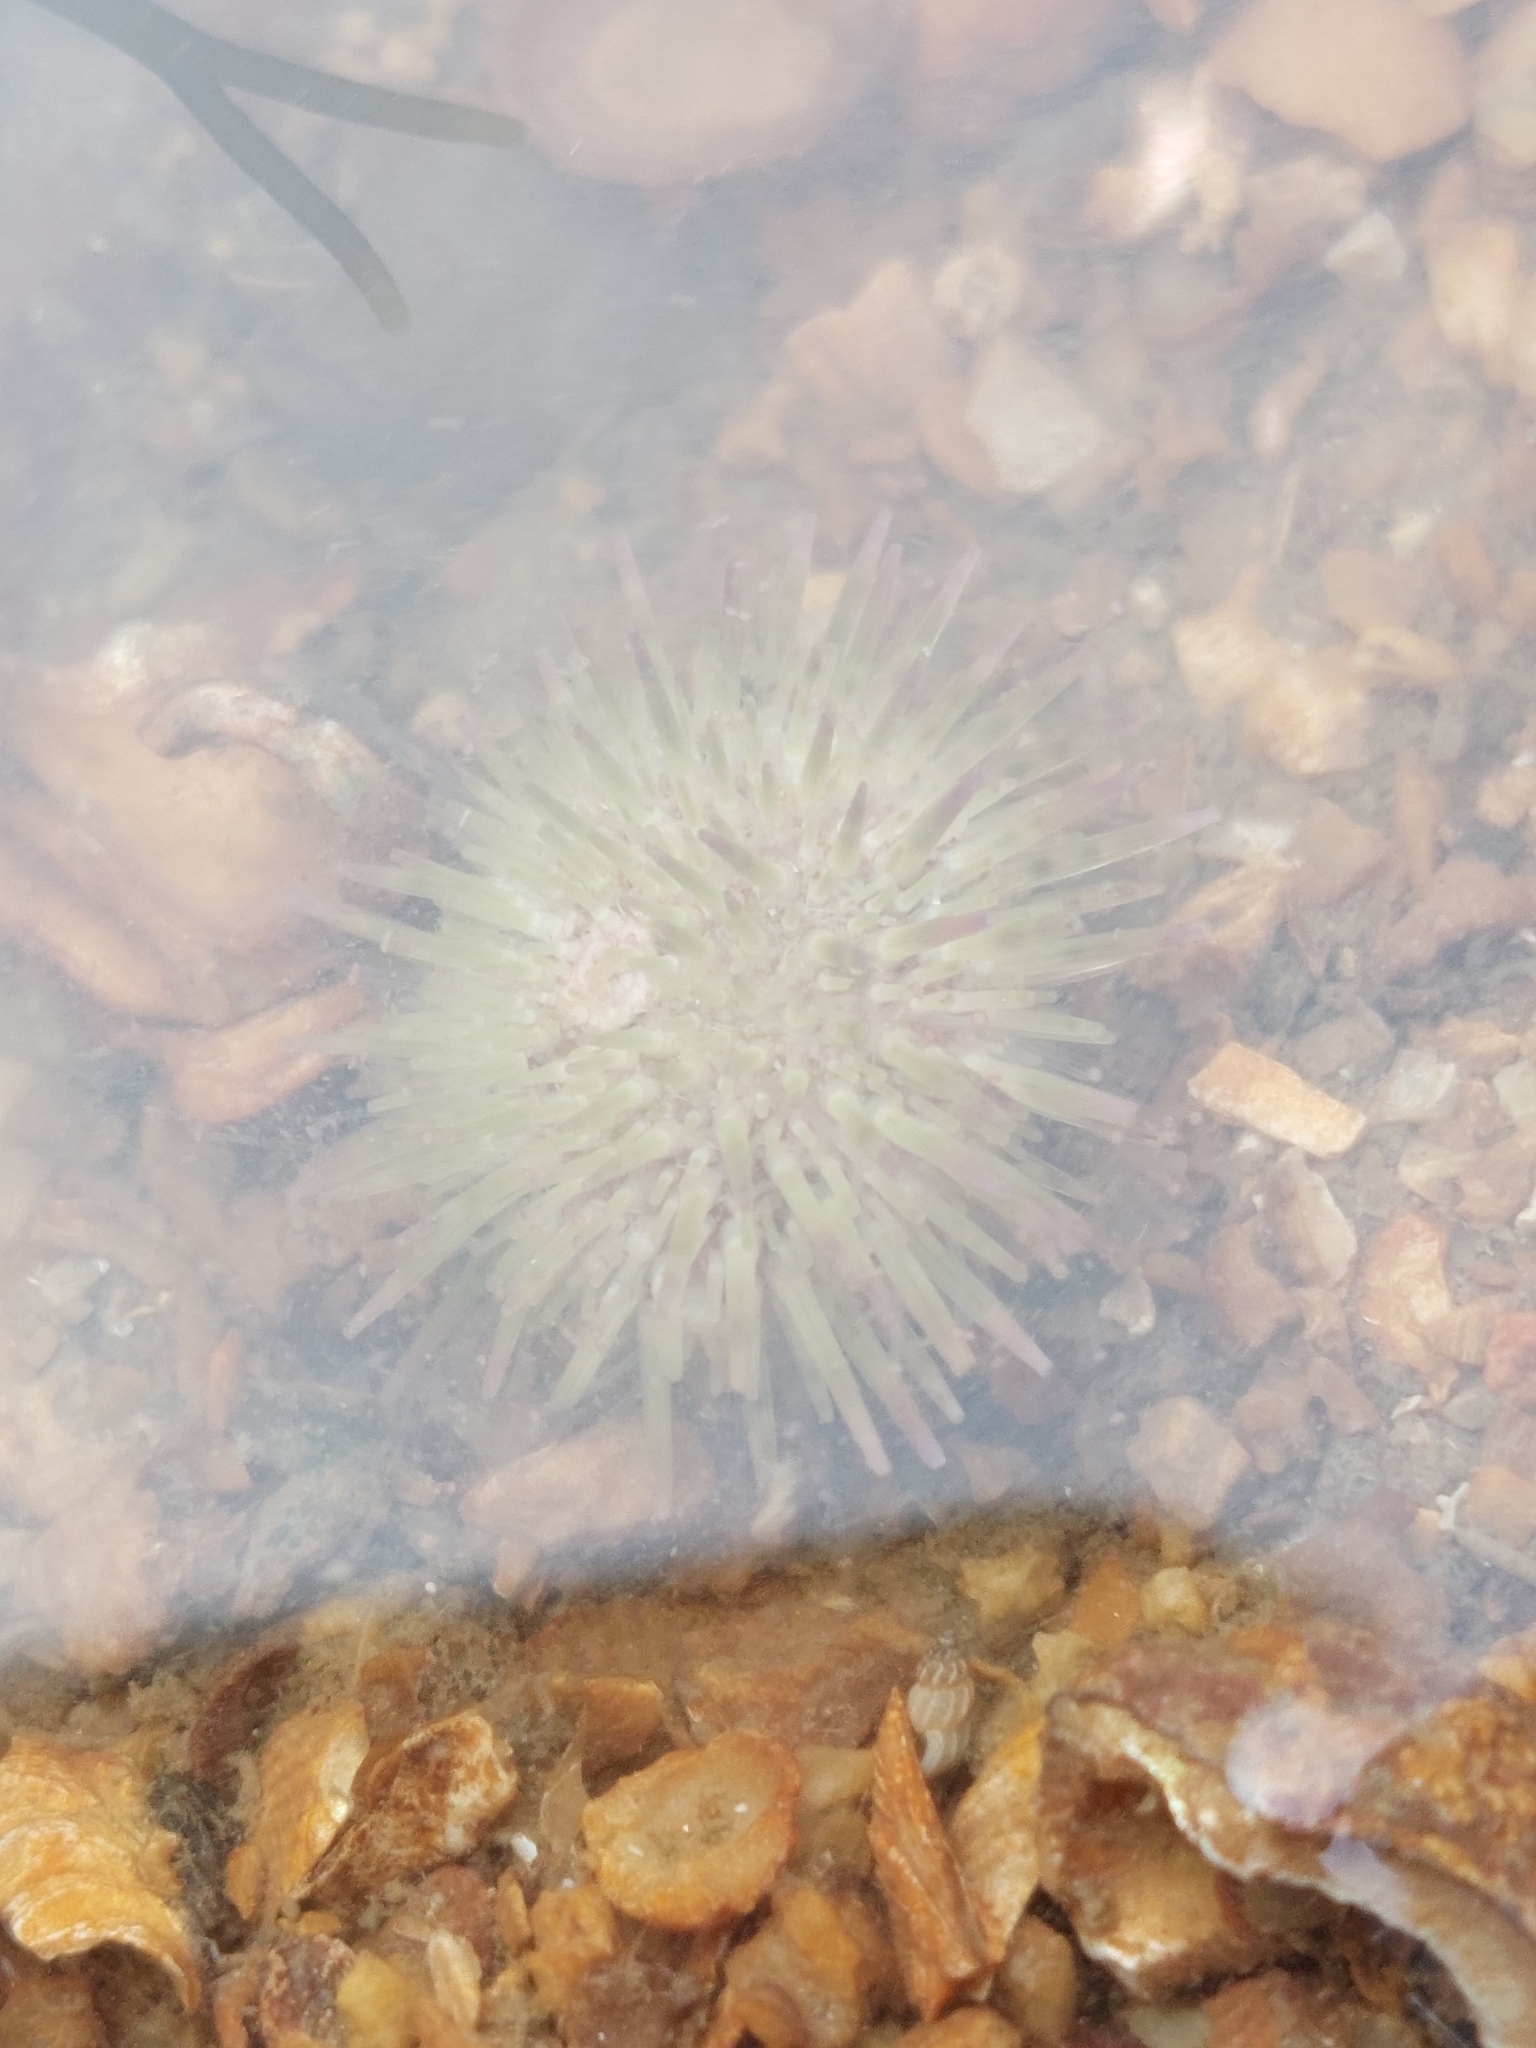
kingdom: Animalia
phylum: Echinodermata
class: Echinoidea
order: Camarodonta
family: Parechinidae
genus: Psammechinus
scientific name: Psammechinus miliaris
